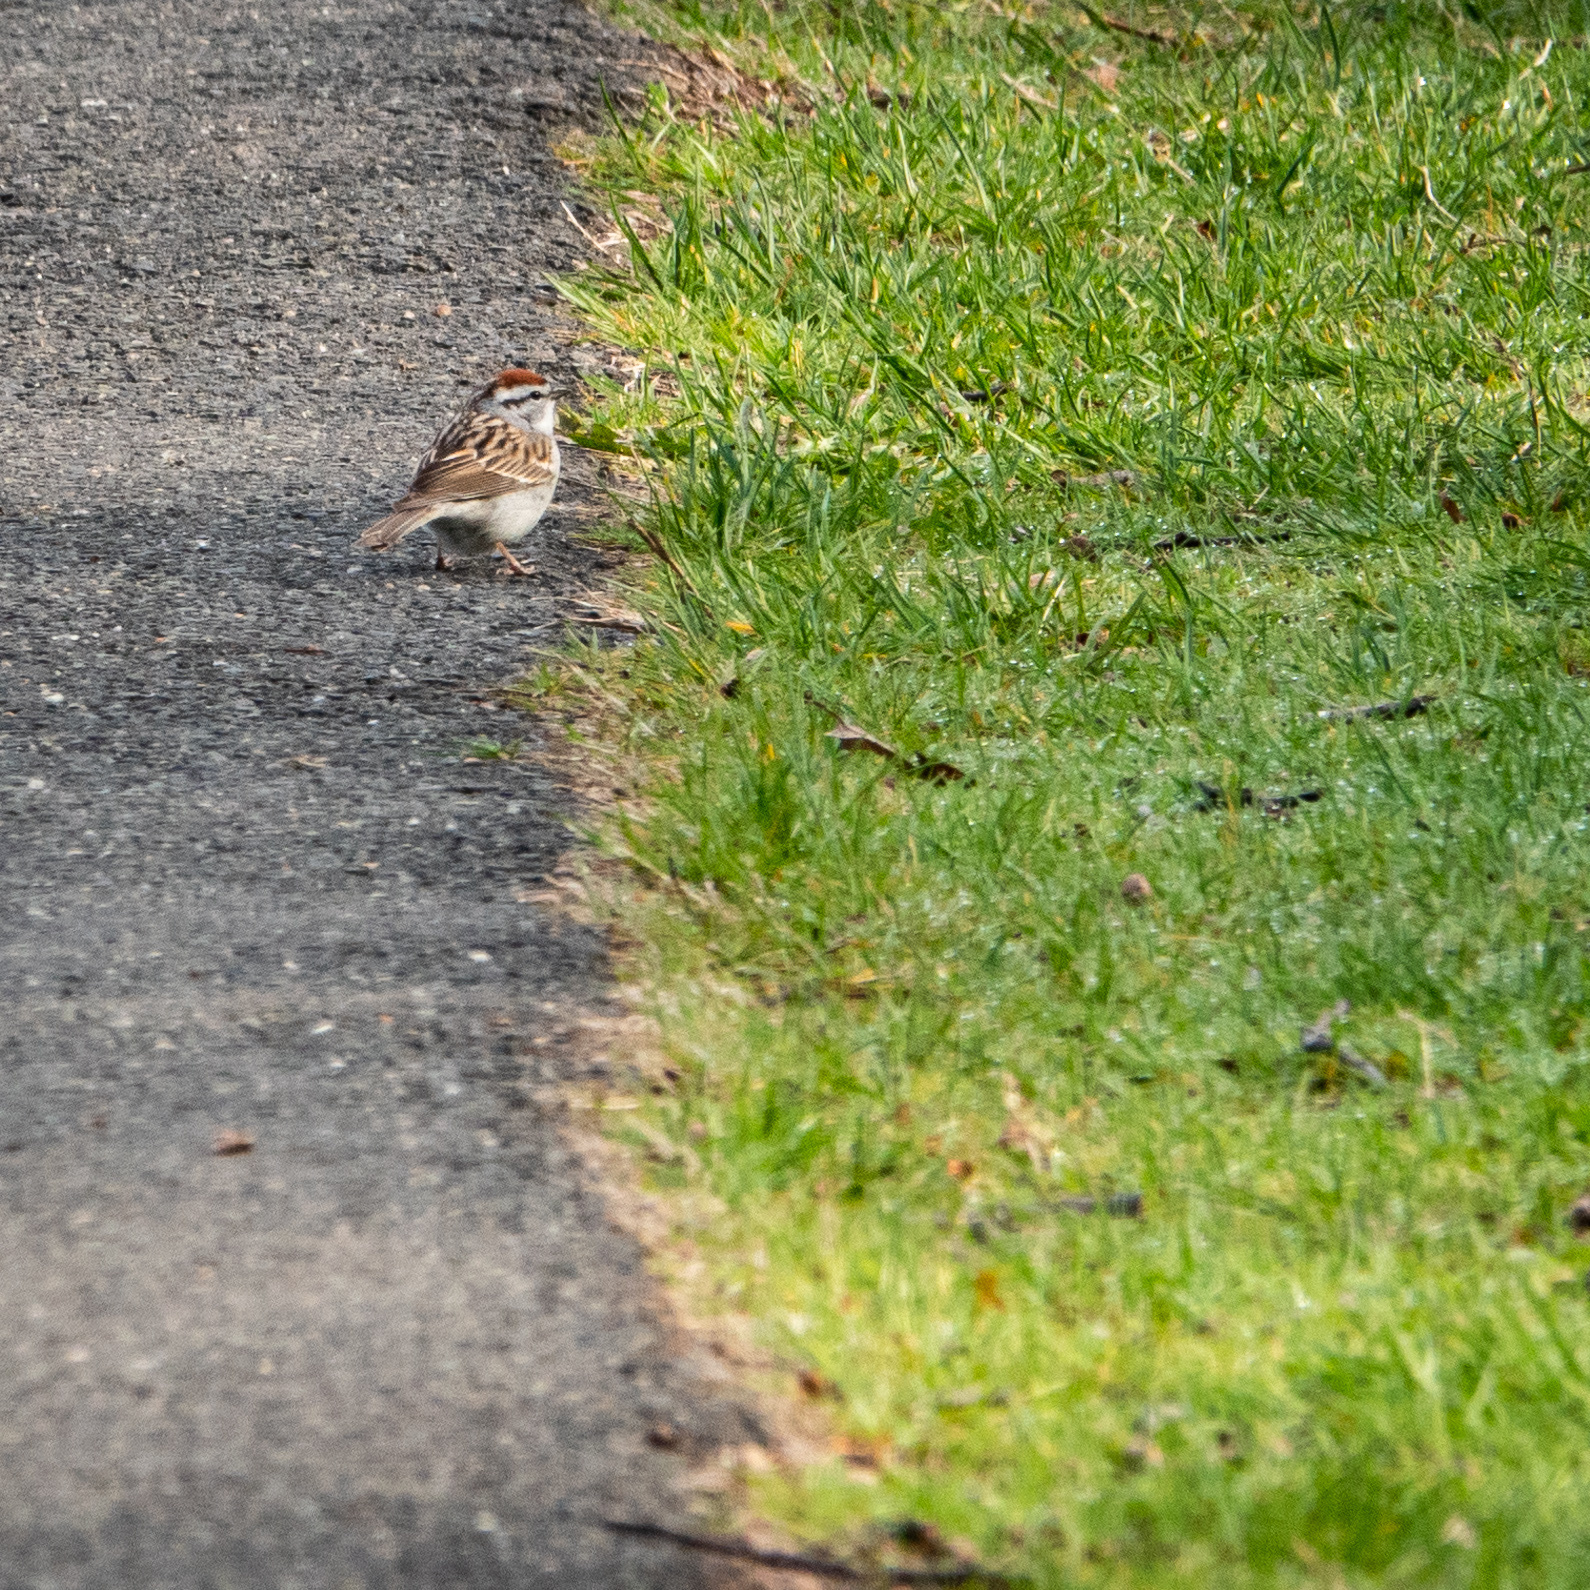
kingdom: Animalia
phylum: Chordata
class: Aves
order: Passeriformes
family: Passerellidae
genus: Spizella
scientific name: Spizella passerina
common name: Chipping sparrow
